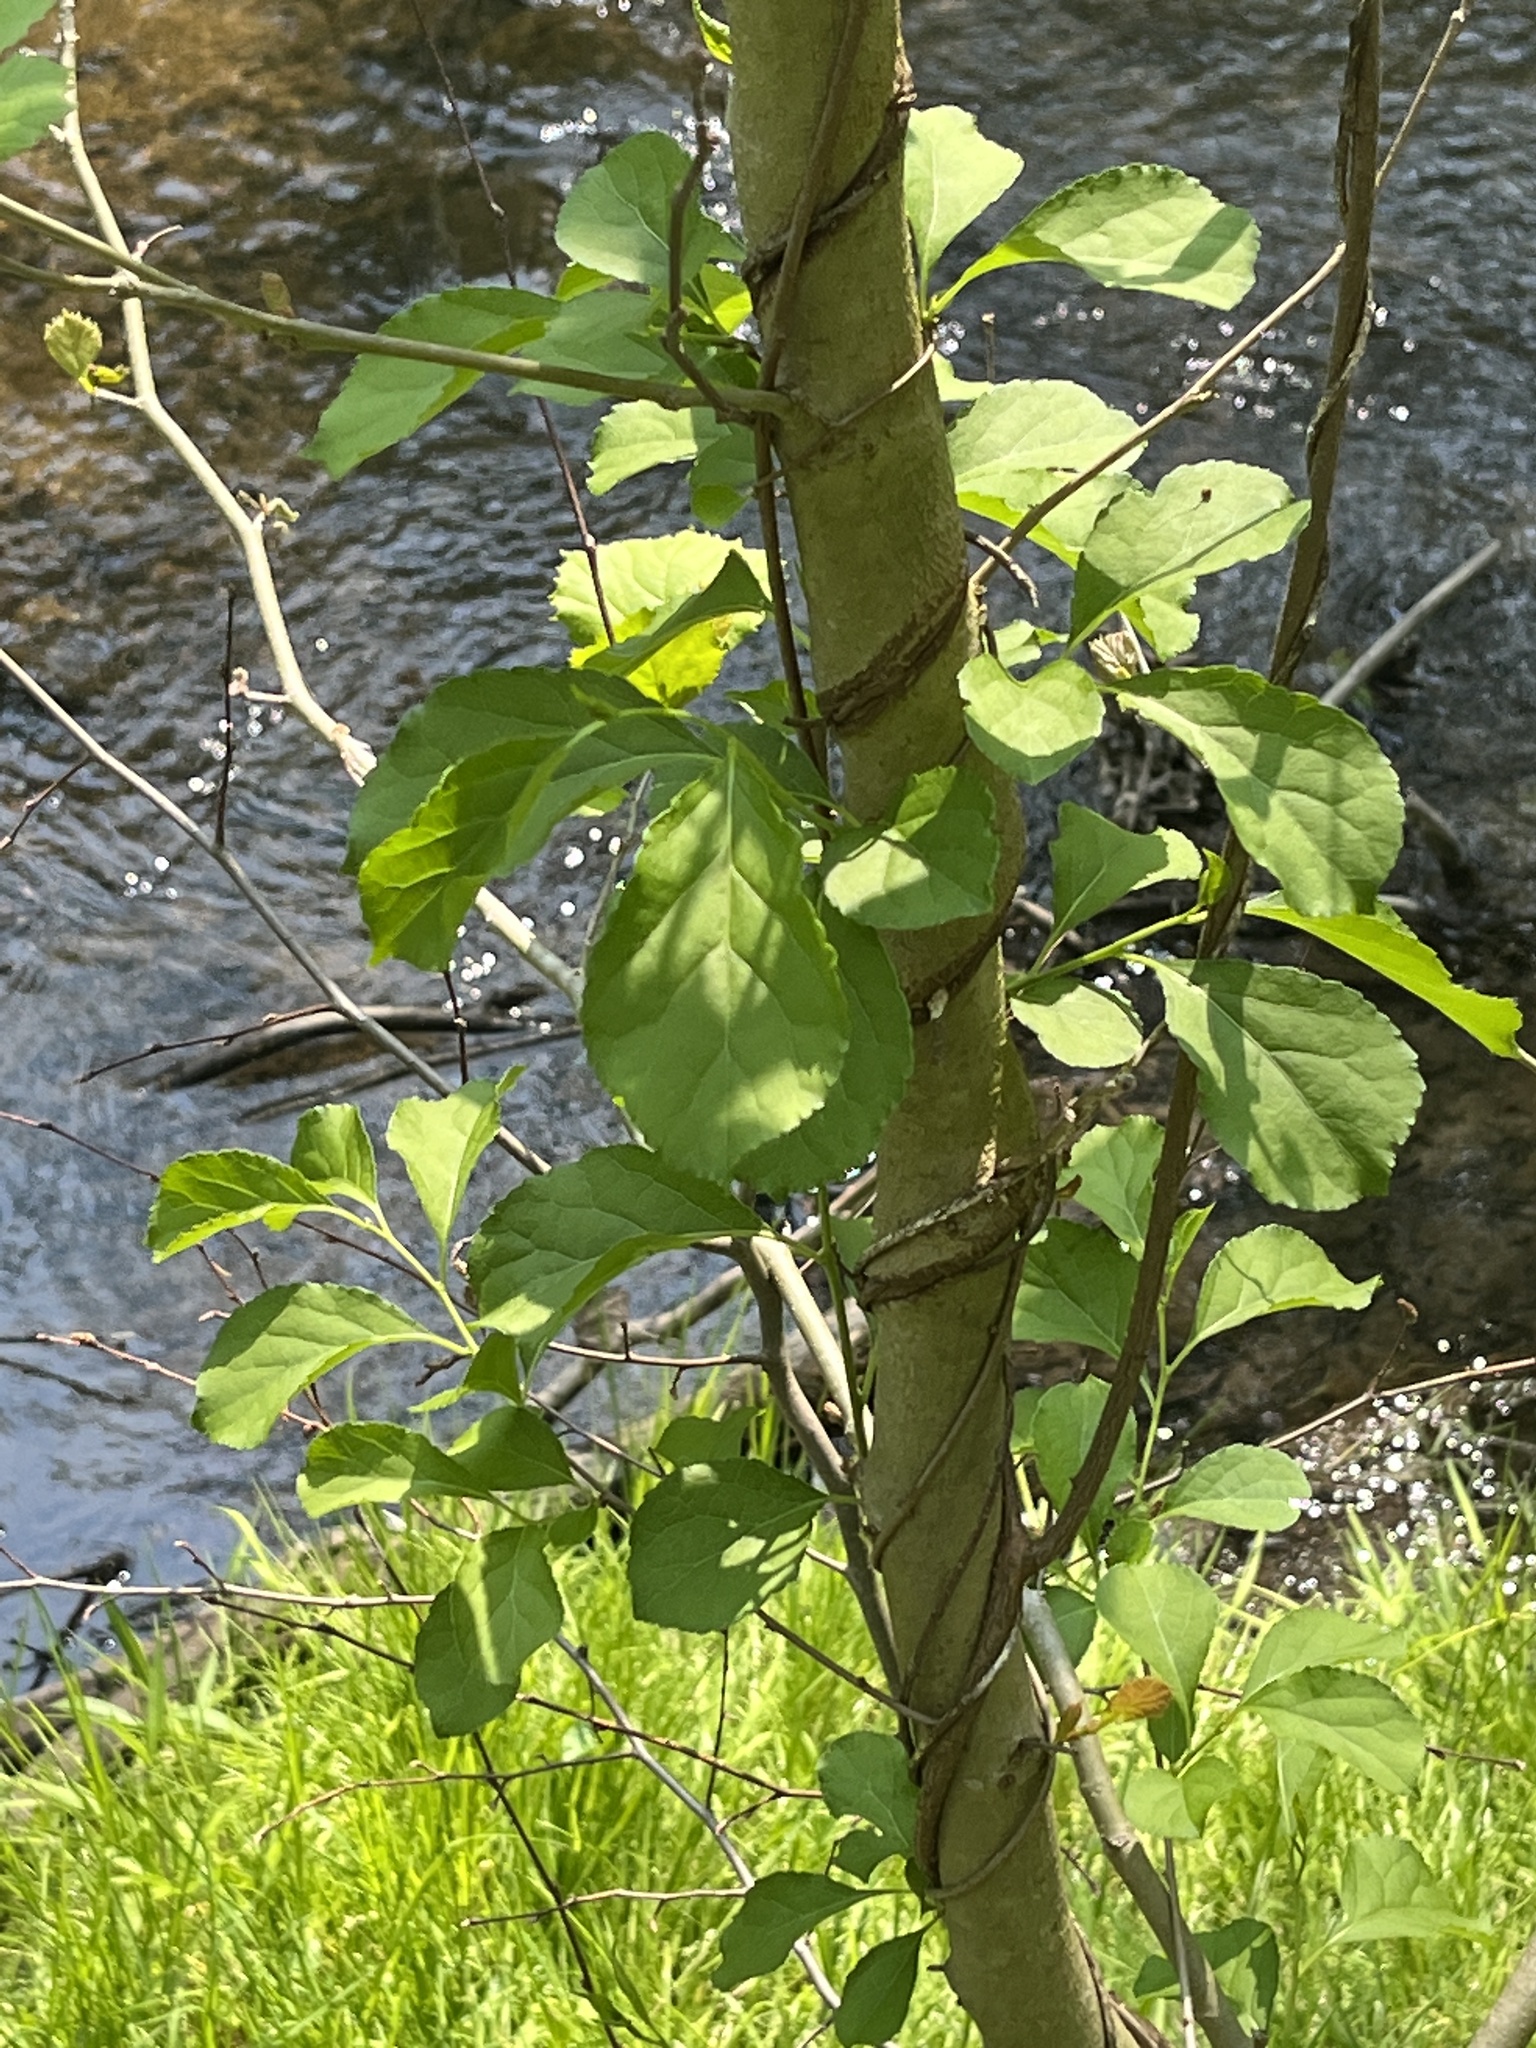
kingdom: Plantae
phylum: Tracheophyta
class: Magnoliopsida
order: Celastrales
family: Celastraceae
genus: Celastrus
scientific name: Celastrus orbiculatus
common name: Oriental bittersweet
